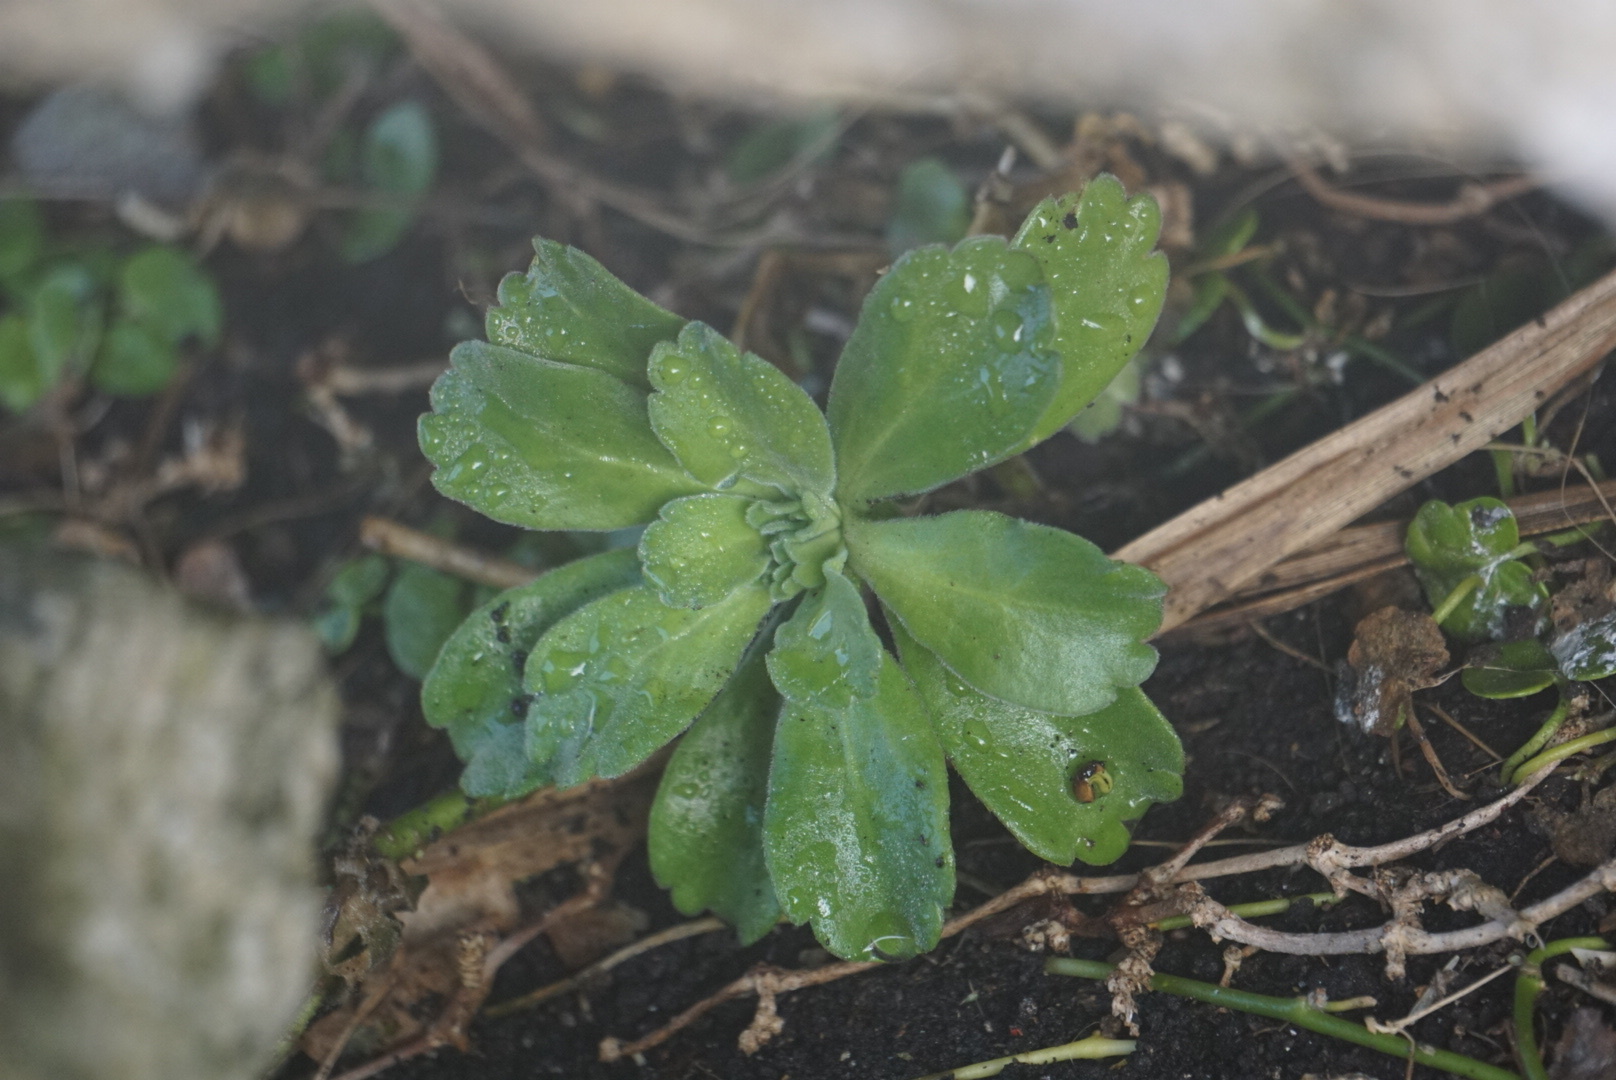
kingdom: Plantae
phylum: Tracheophyta
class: Magnoliopsida
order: Asterales
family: Asteraceae
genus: Leptinella
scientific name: Leptinella featherstonii
